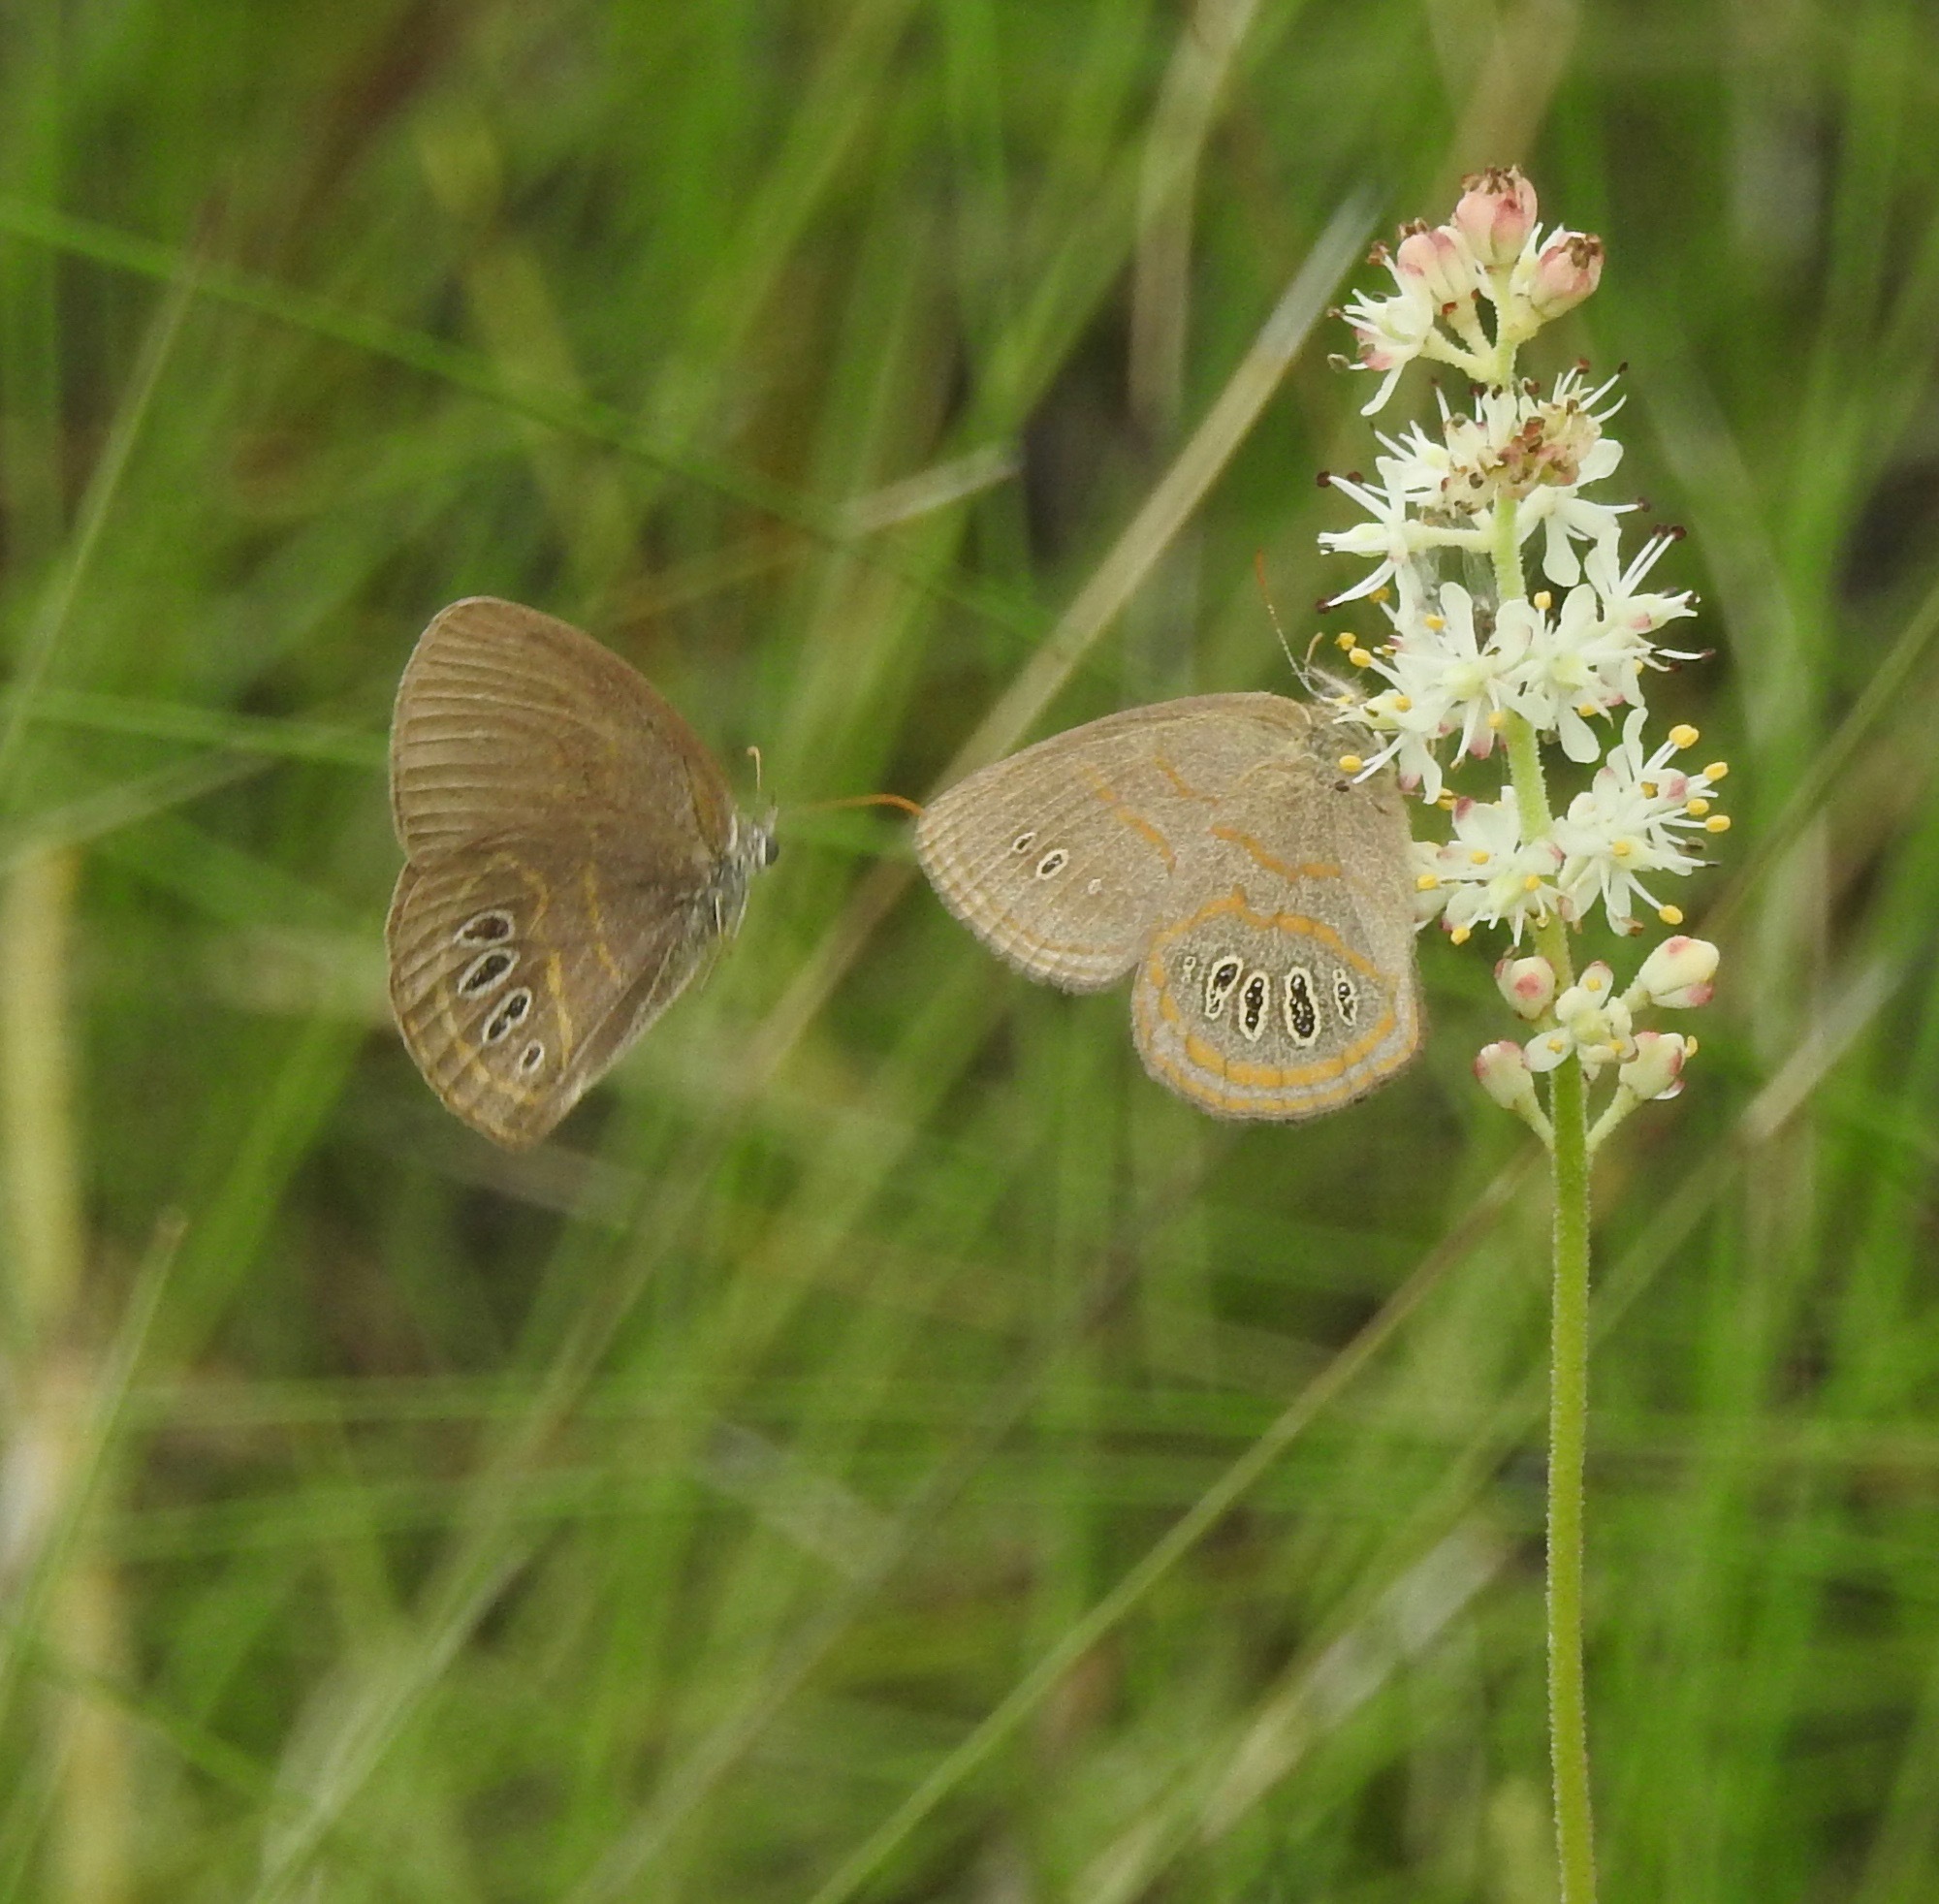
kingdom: Animalia
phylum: Arthropoda
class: Insecta
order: Lepidoptera
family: Nymphalidae
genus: Euptychia
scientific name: Euptychia phocion
